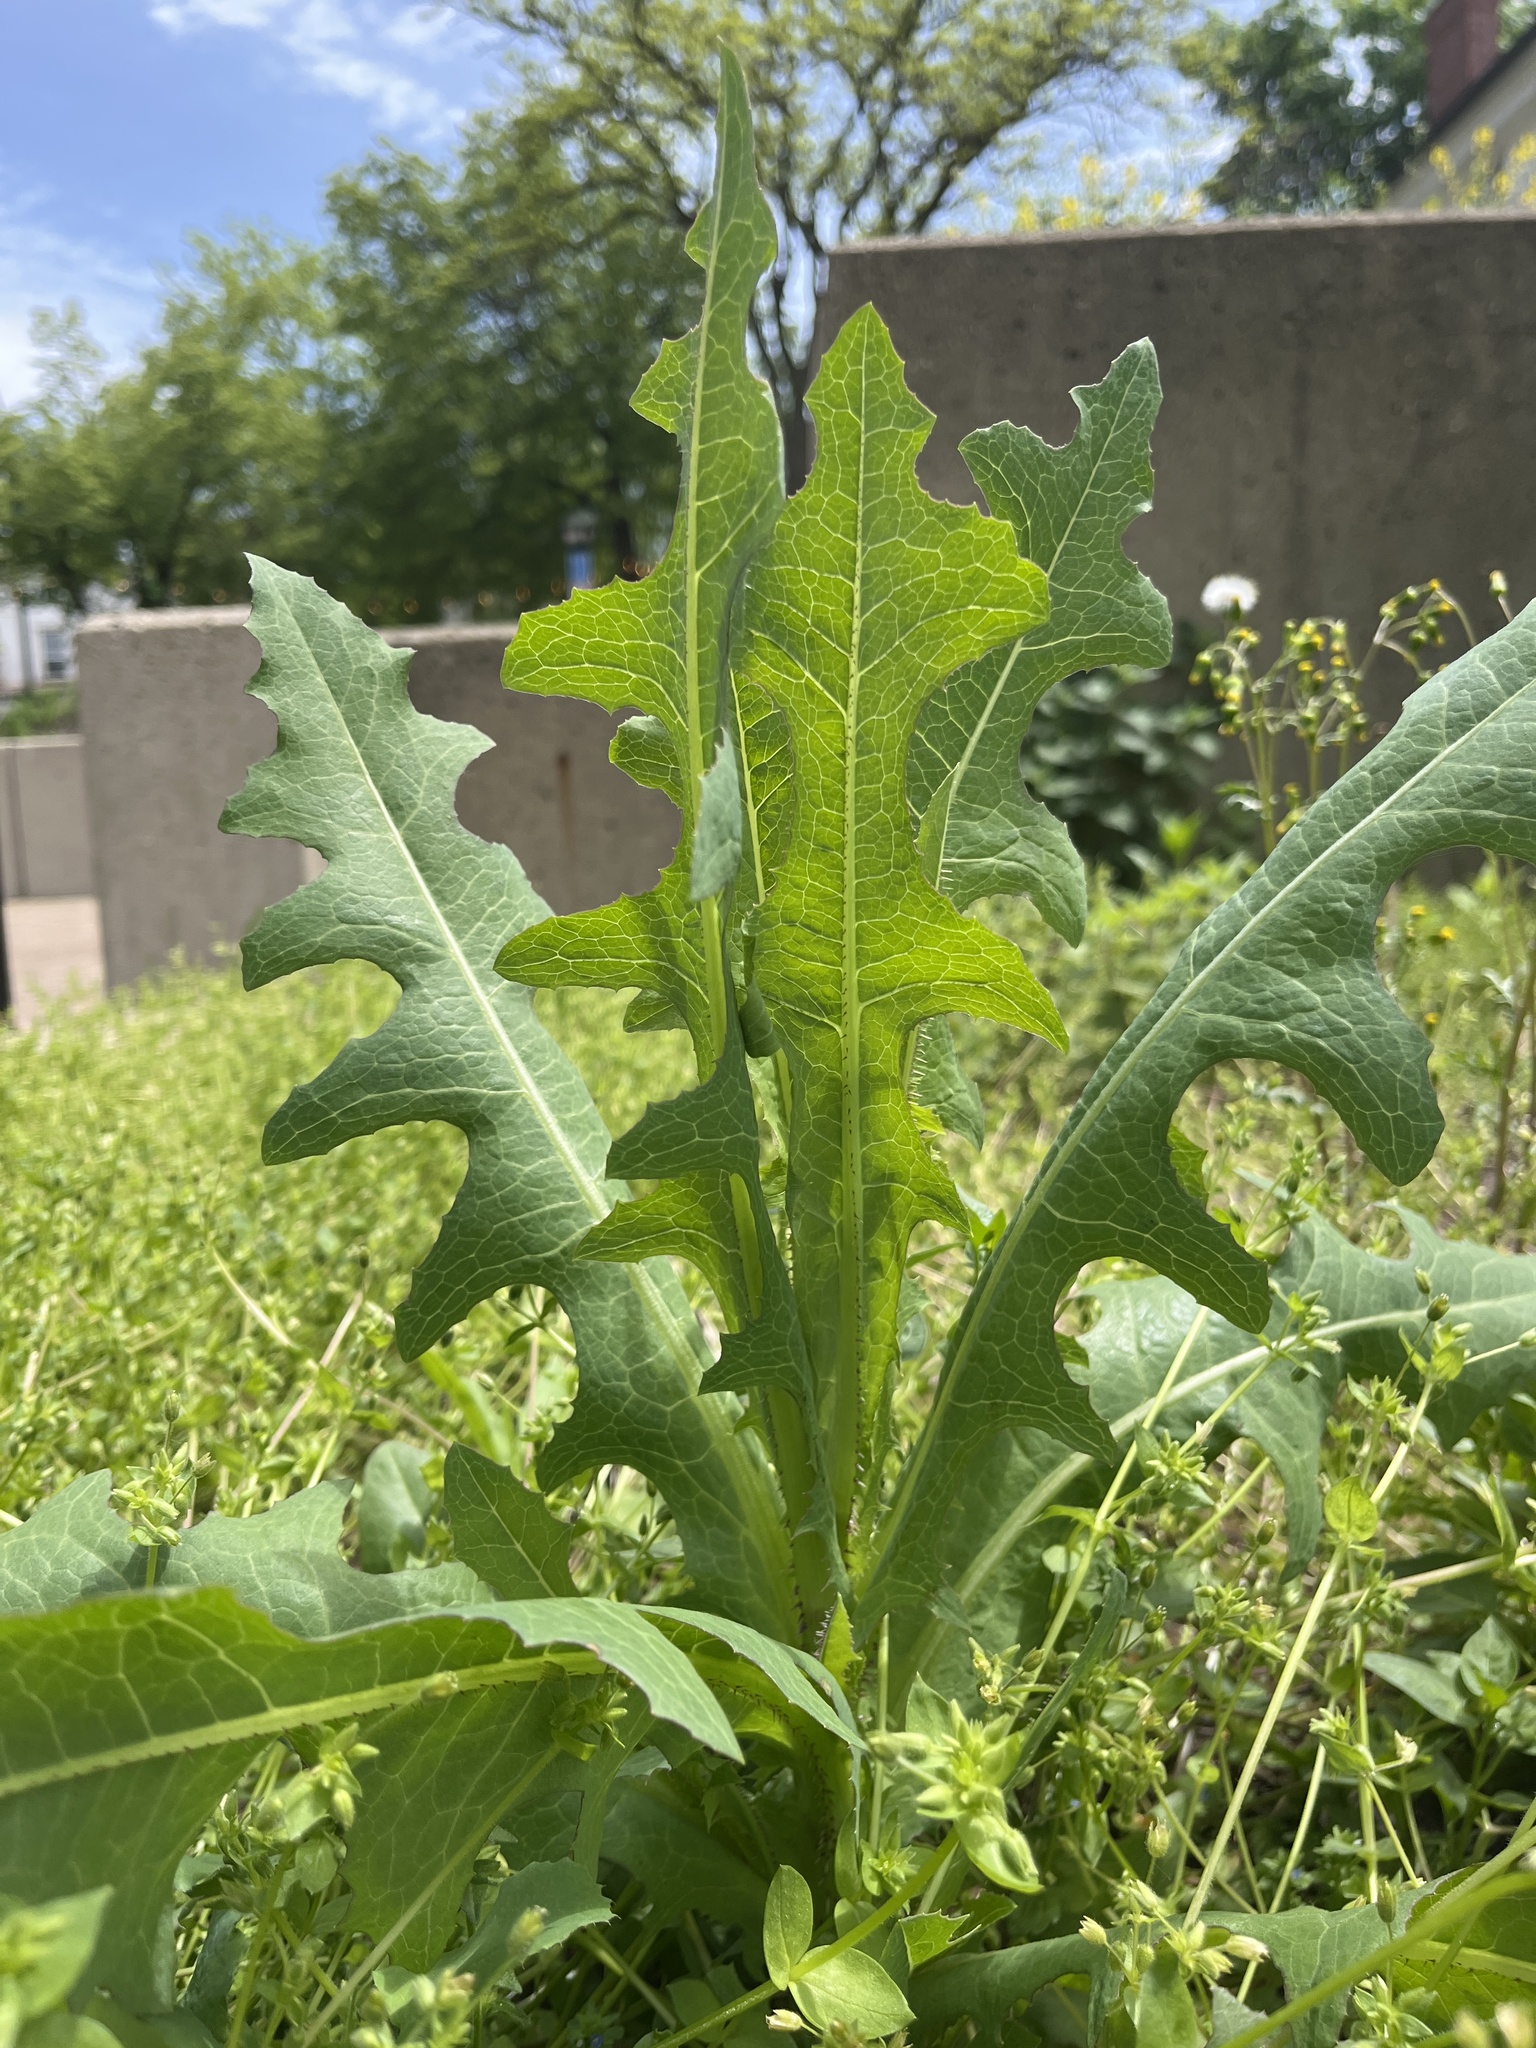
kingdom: Plantae
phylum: Tracheophyta
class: Magnoliopsida
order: Asterales
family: Asteraceae
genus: Lactuca
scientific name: Lactuca serriola
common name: Prickly lettuce
